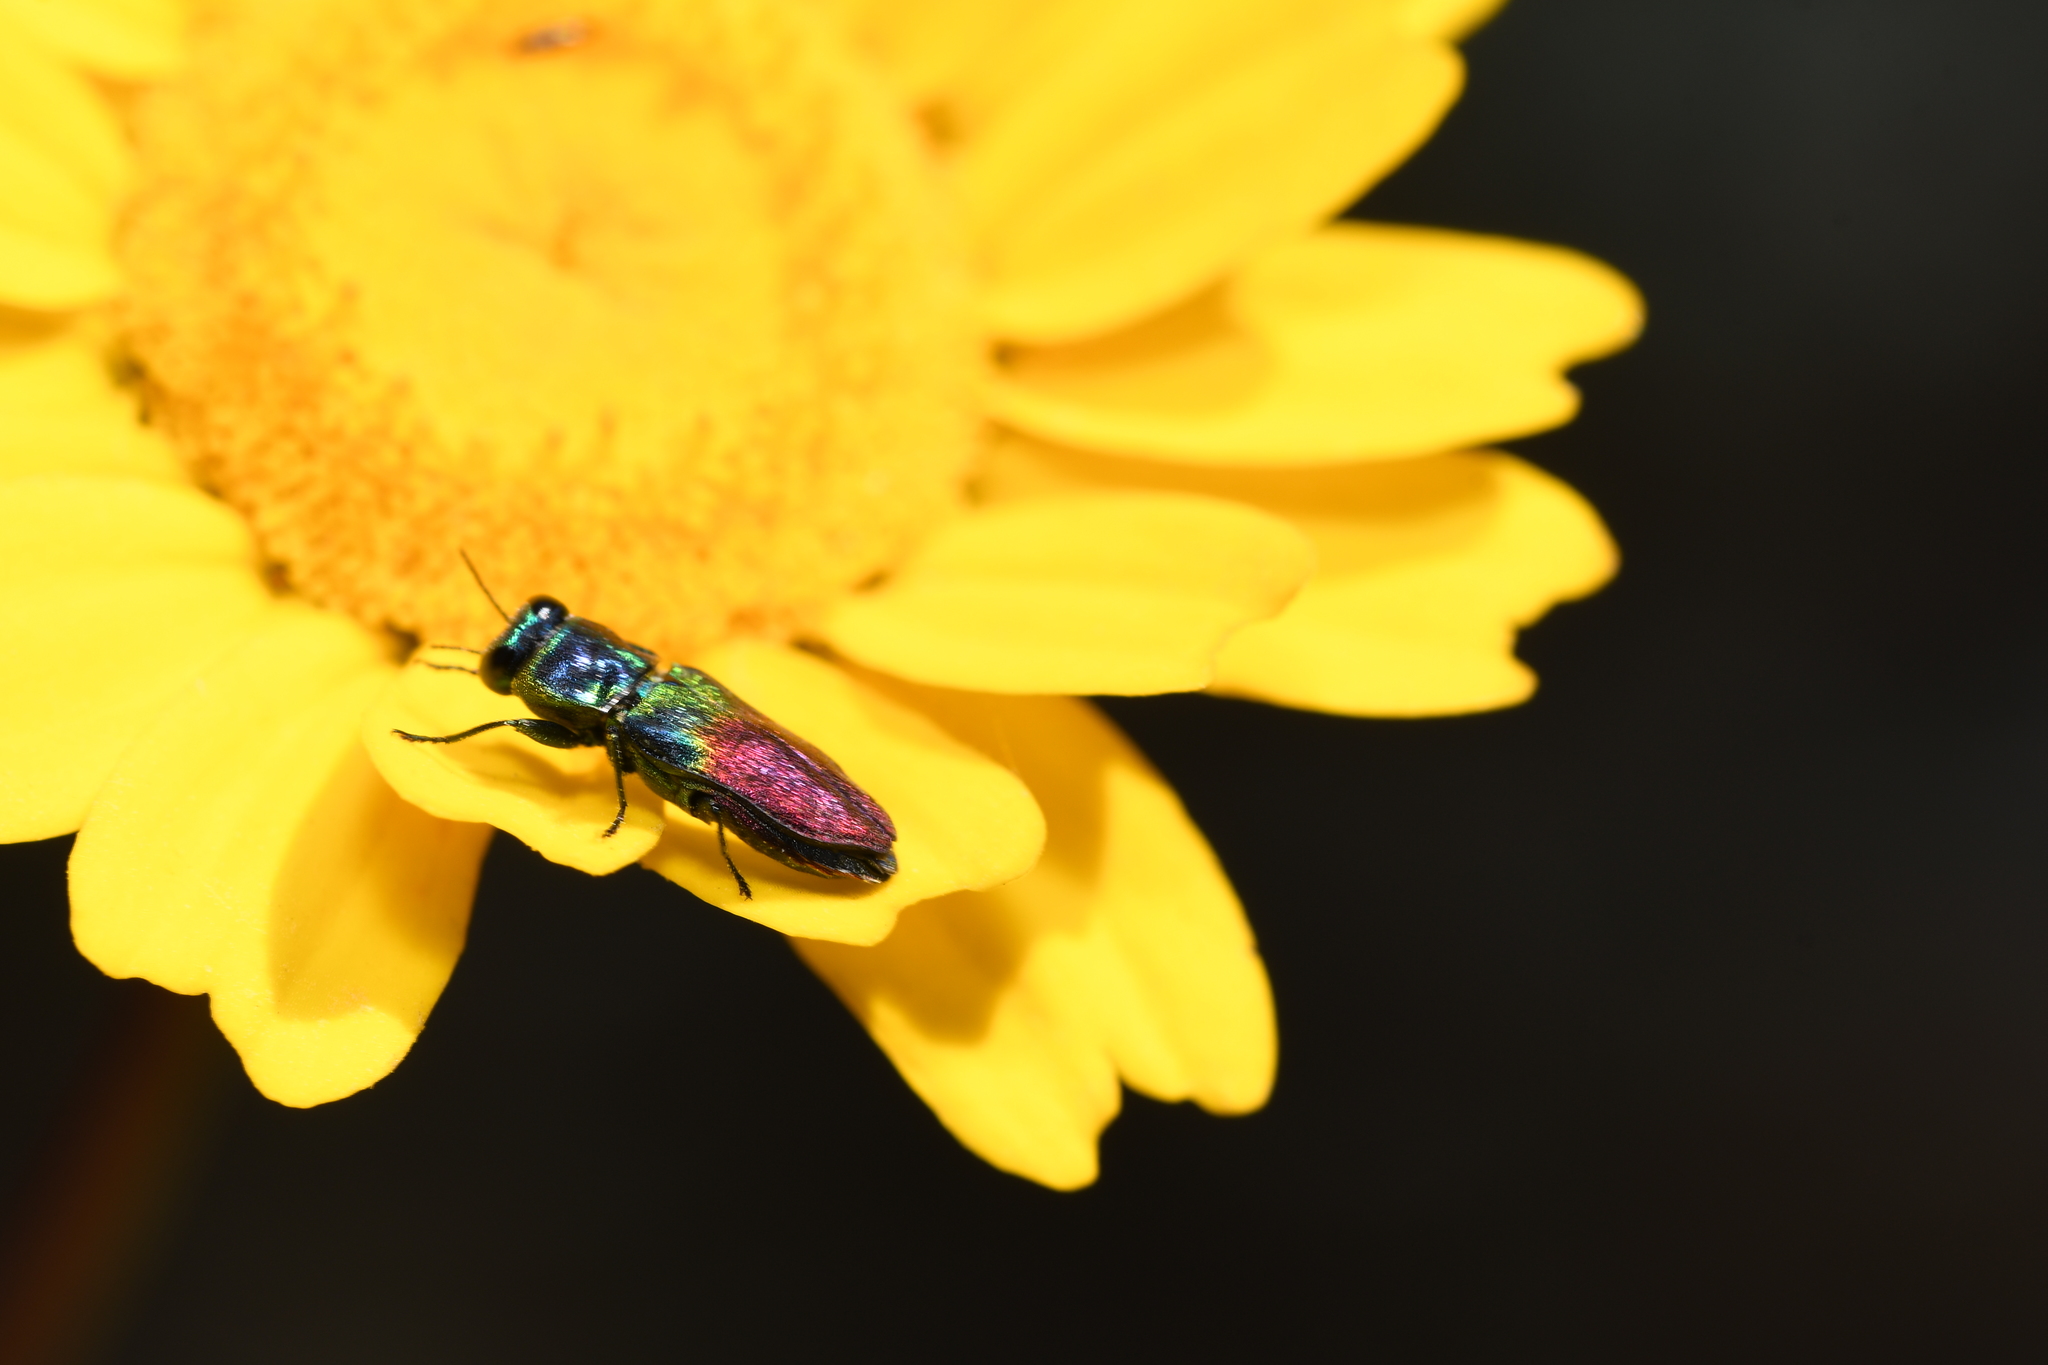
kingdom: Animalia
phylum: Arthropoda
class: Insecta
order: Coleoptera
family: Buprestidae
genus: Anthaxia
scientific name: Anthaxia dimidiata
